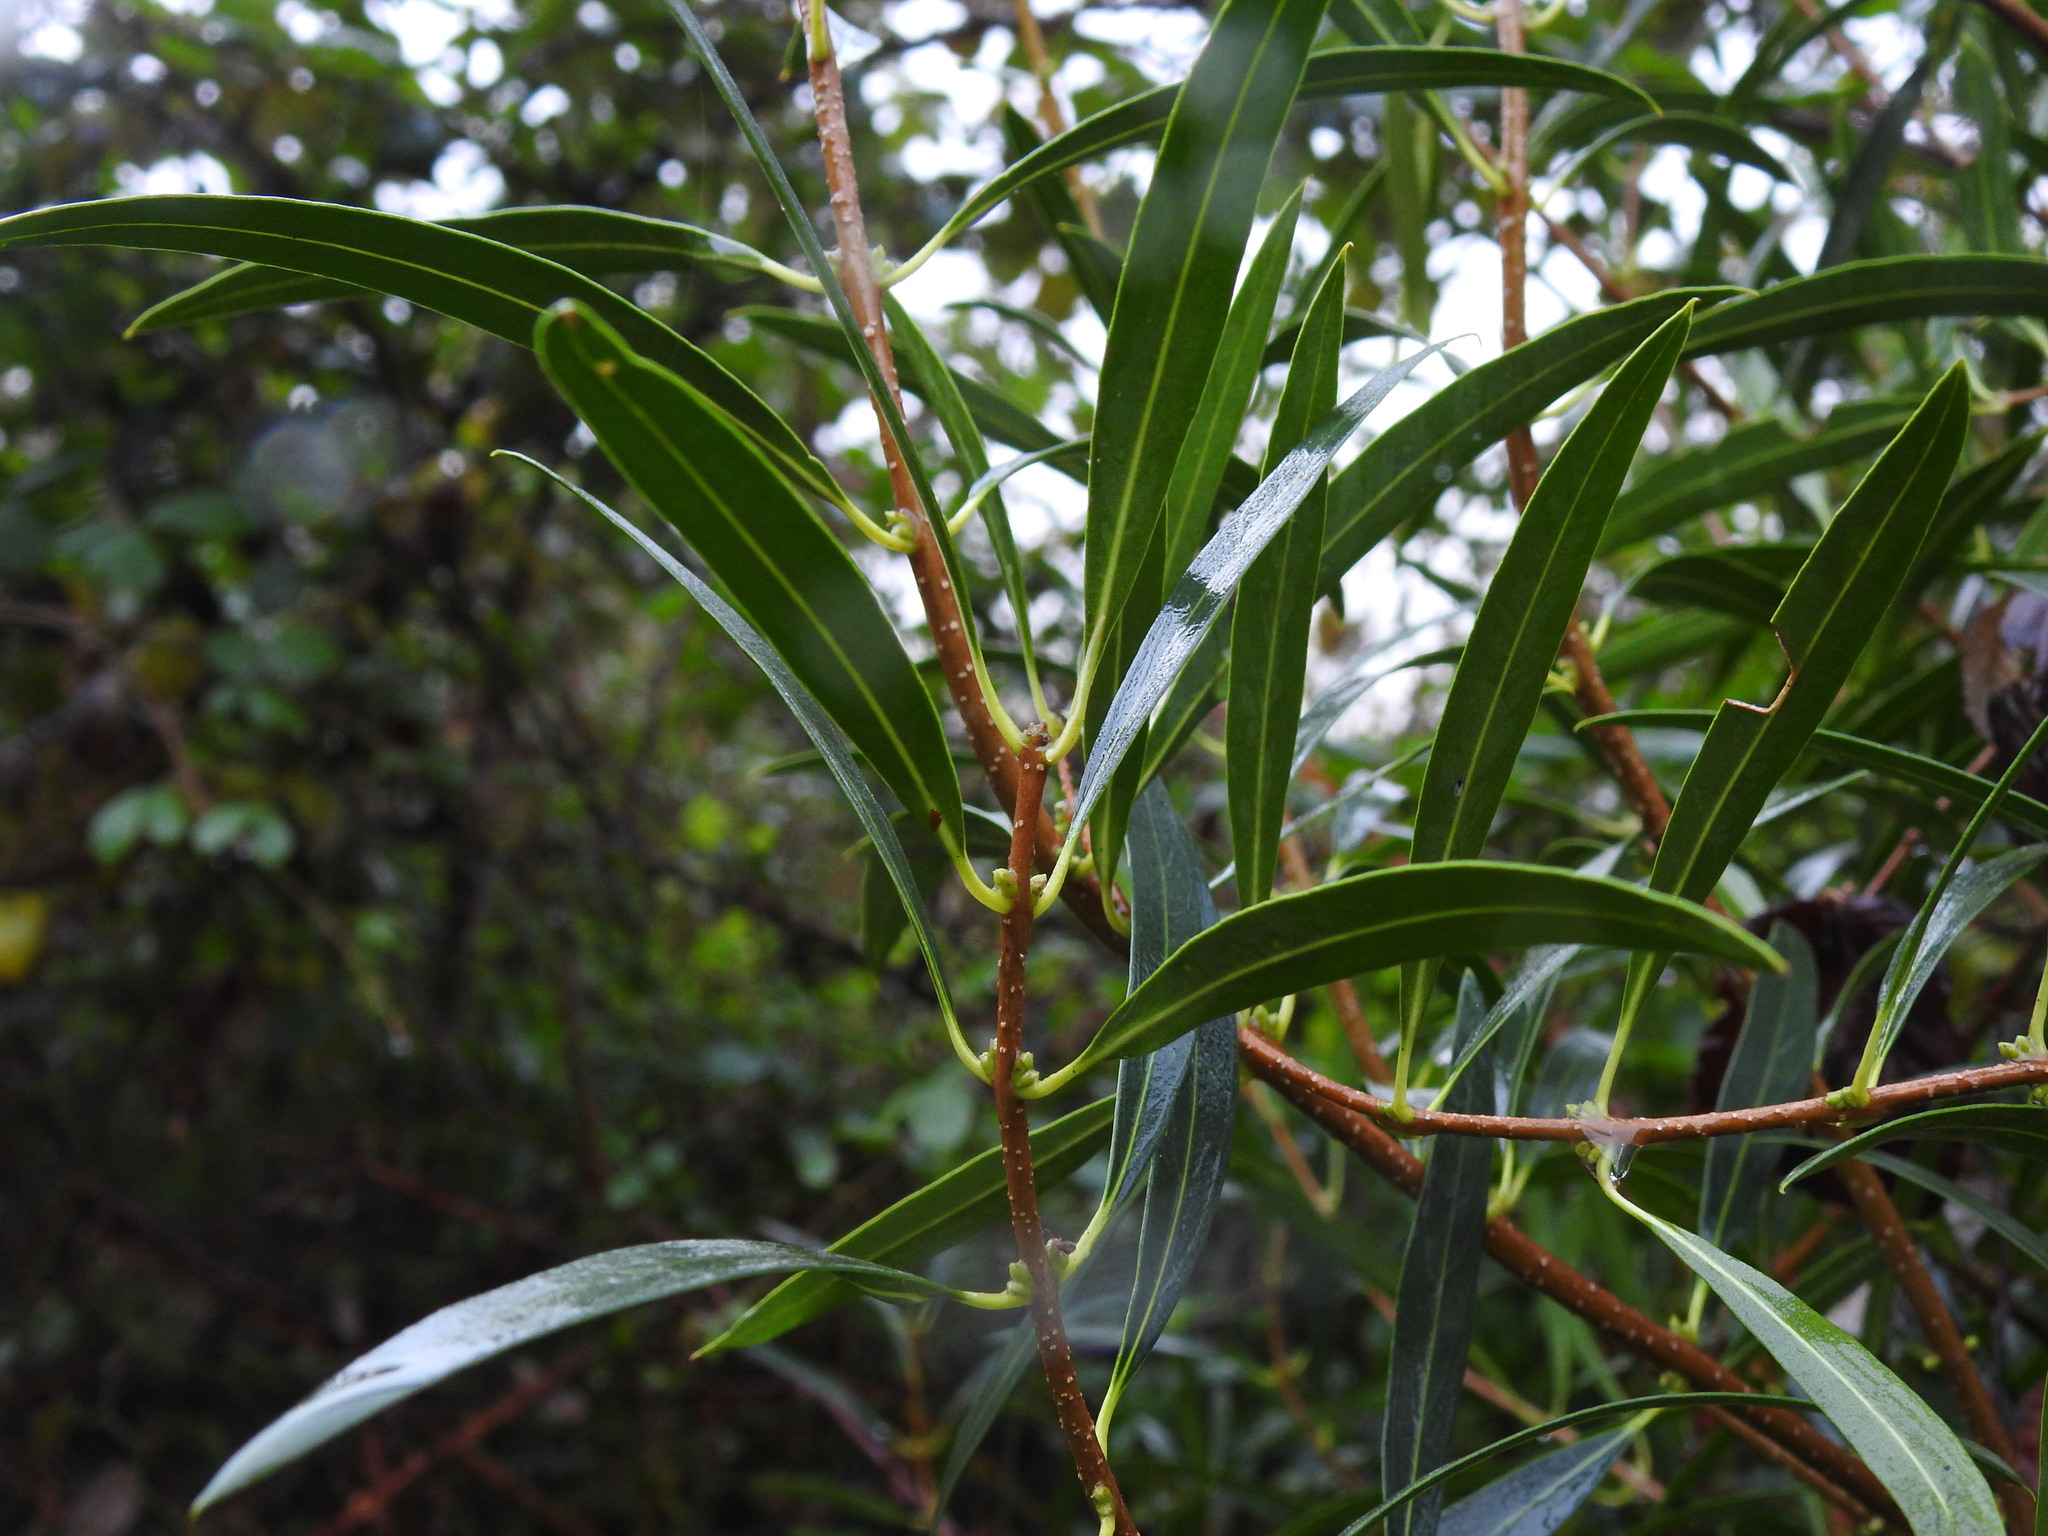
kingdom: Plantae
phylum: Tracheophyta
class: Magnoliopsida
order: Lamiales
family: Oleaceae
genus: Phillyrea
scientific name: Phillyrea angustifolia
